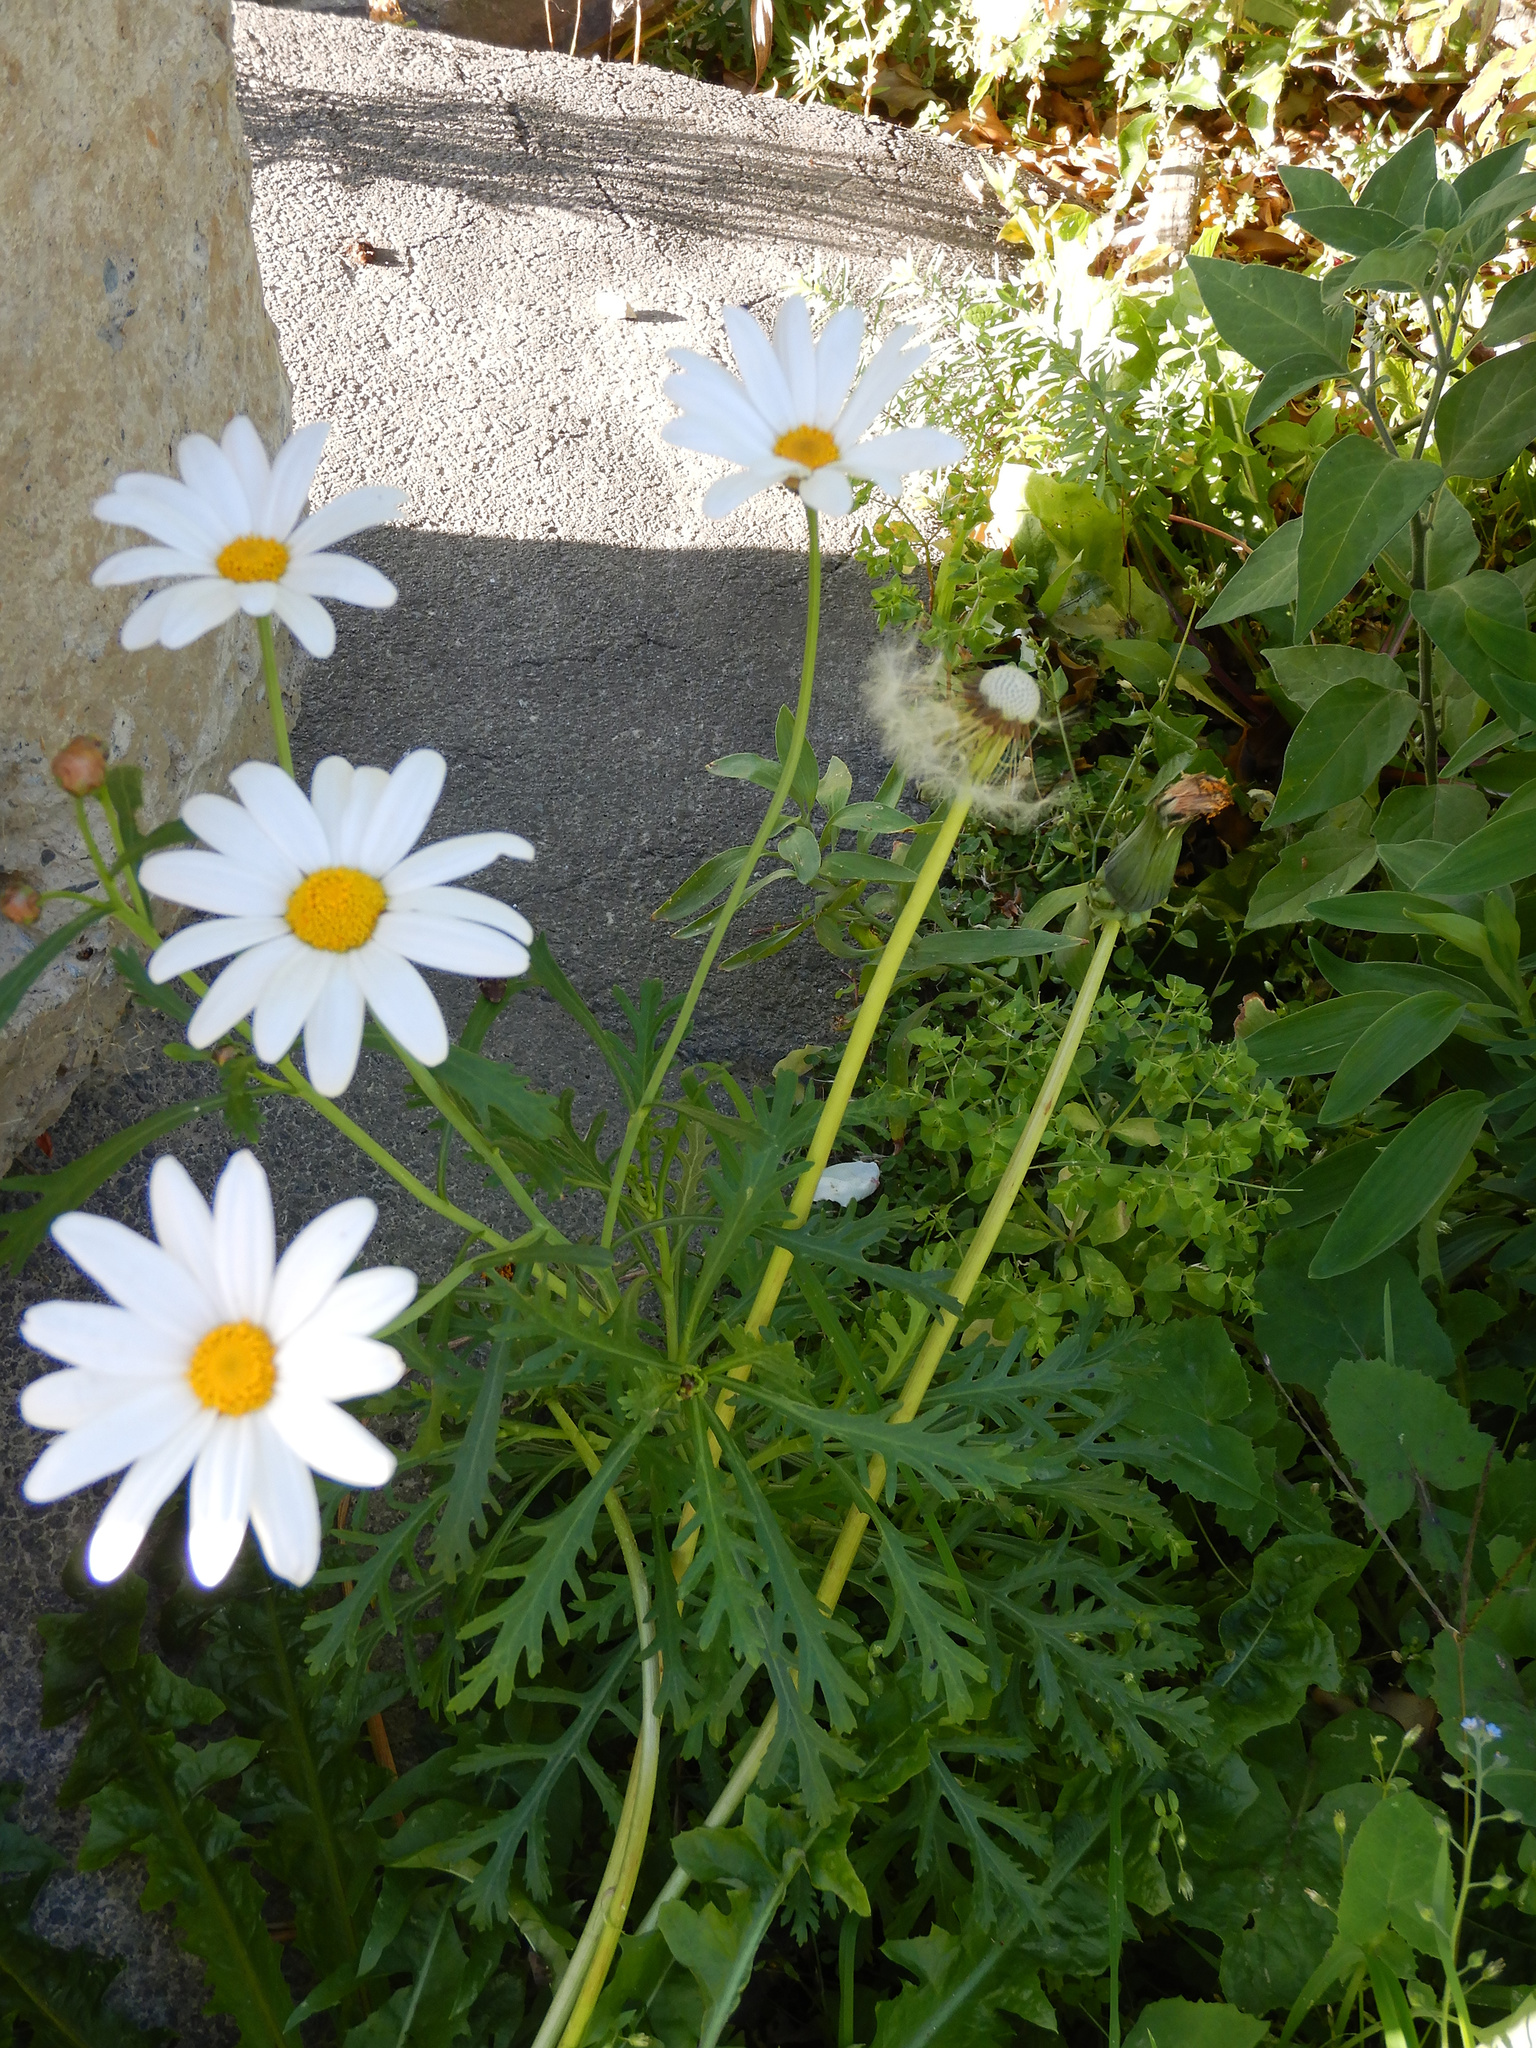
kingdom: Plantae
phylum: Tracheophyta
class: Magnoliopsida
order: Asterales
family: Asteraceae
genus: Leucanthemum
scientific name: Leucanthemum maximum
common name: Max chrysanthemum
